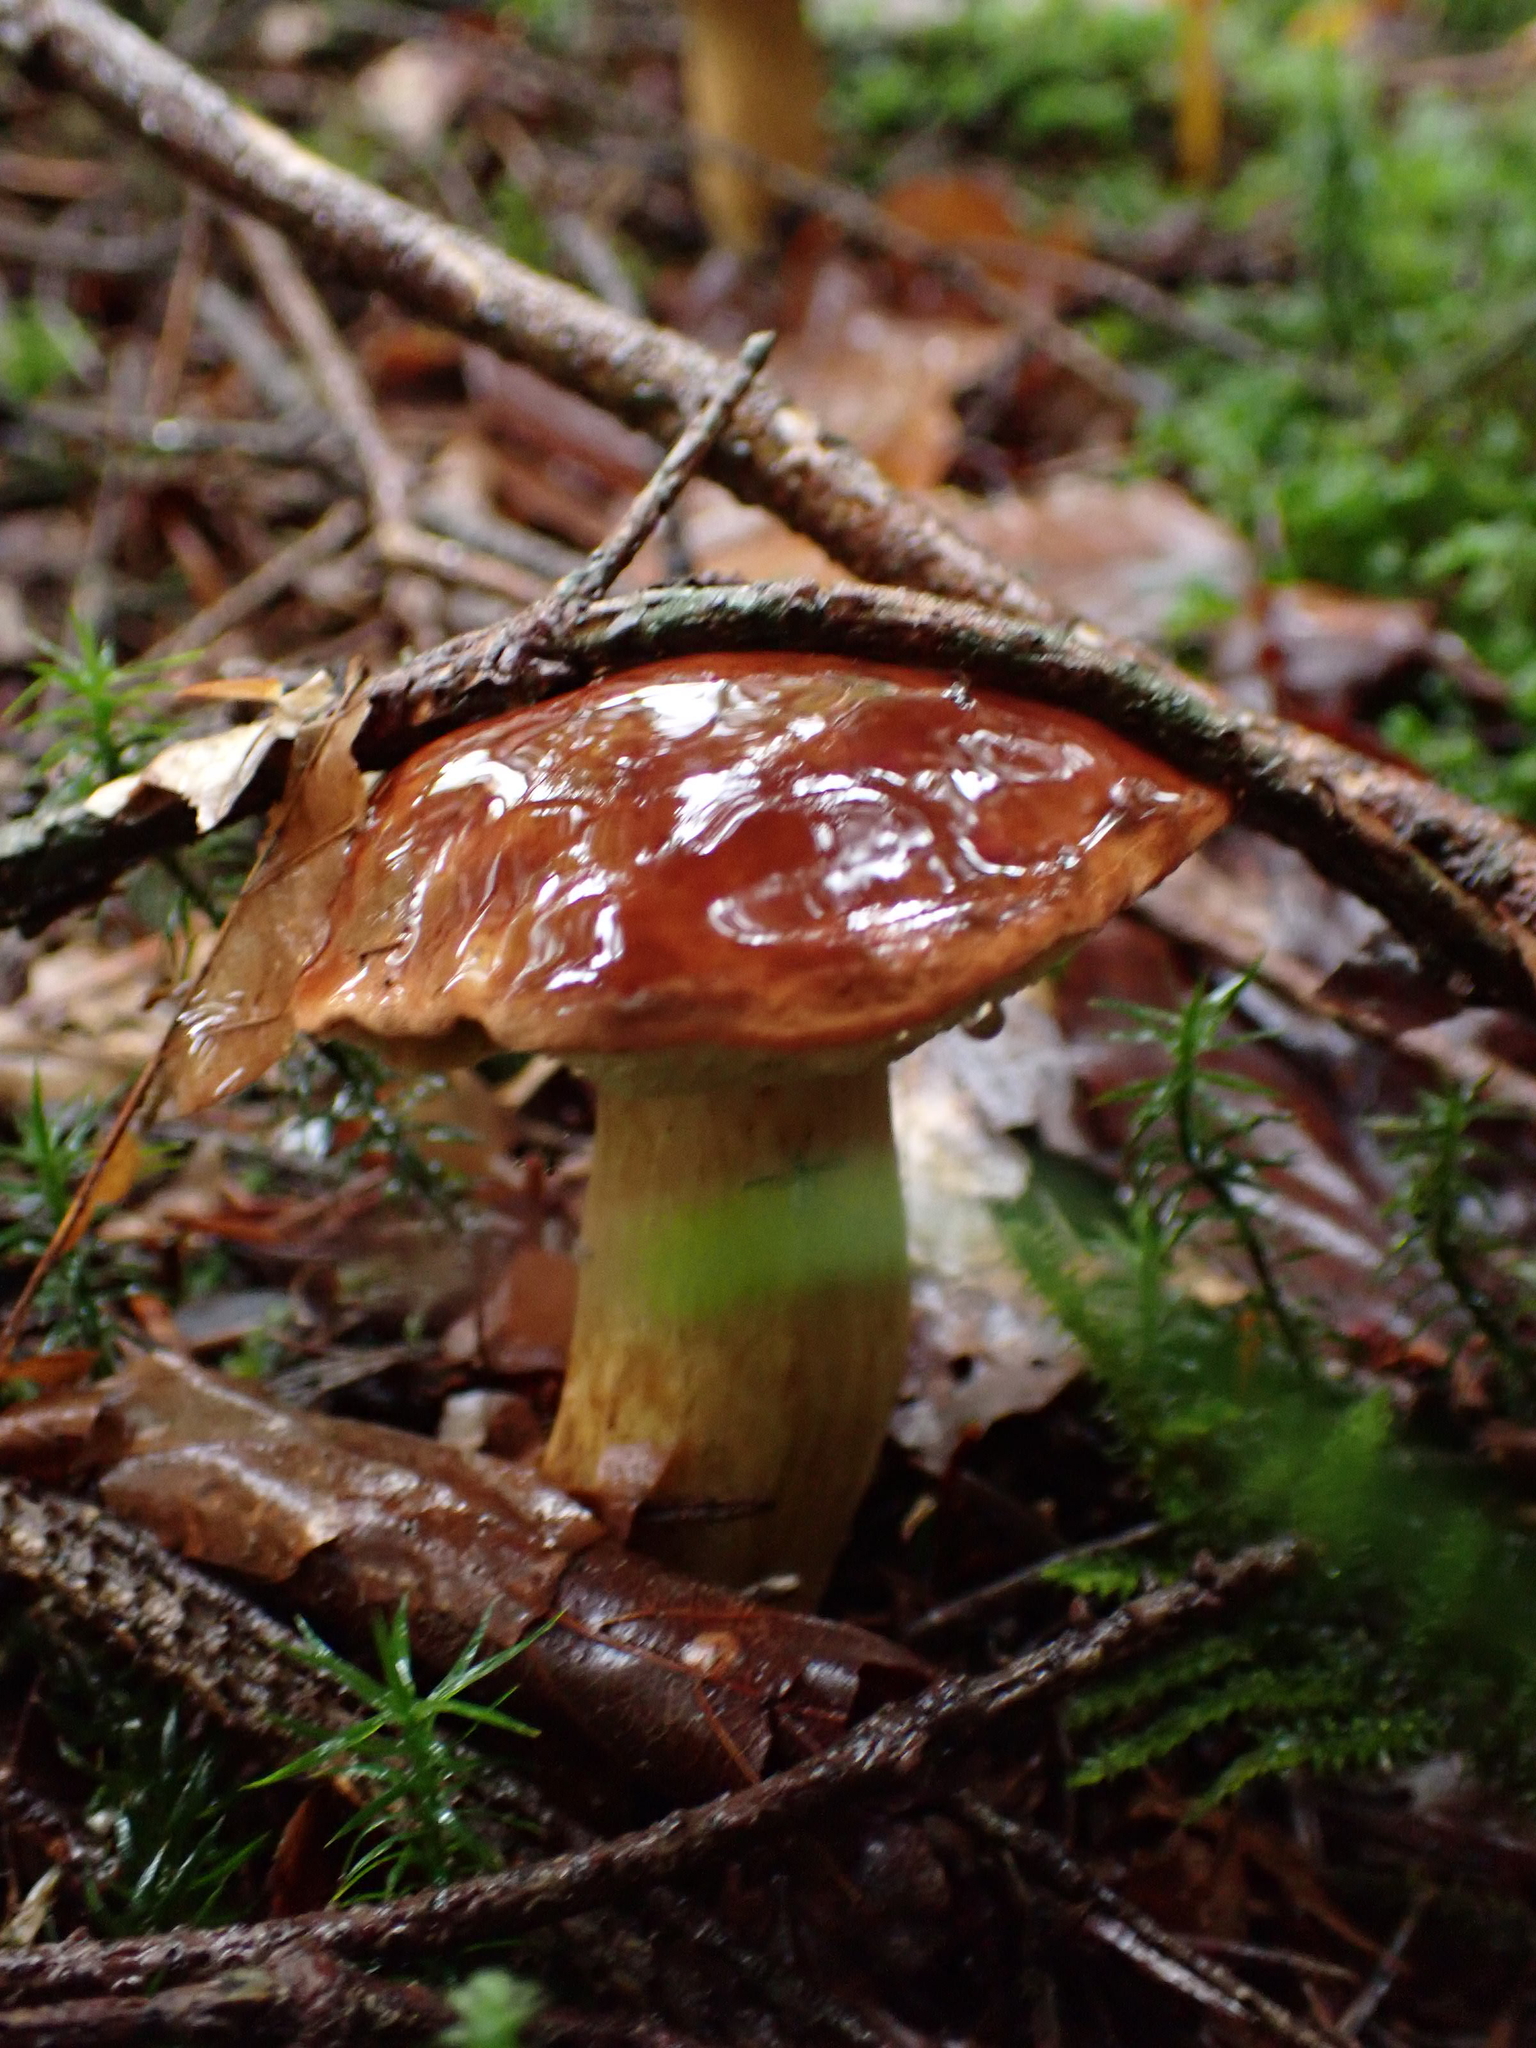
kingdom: Fungi
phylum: Basidiomycota
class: Agaricomycetes
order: Boletales
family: Boletaceae
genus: Imleria
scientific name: Imleria badia
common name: Bay bolete
